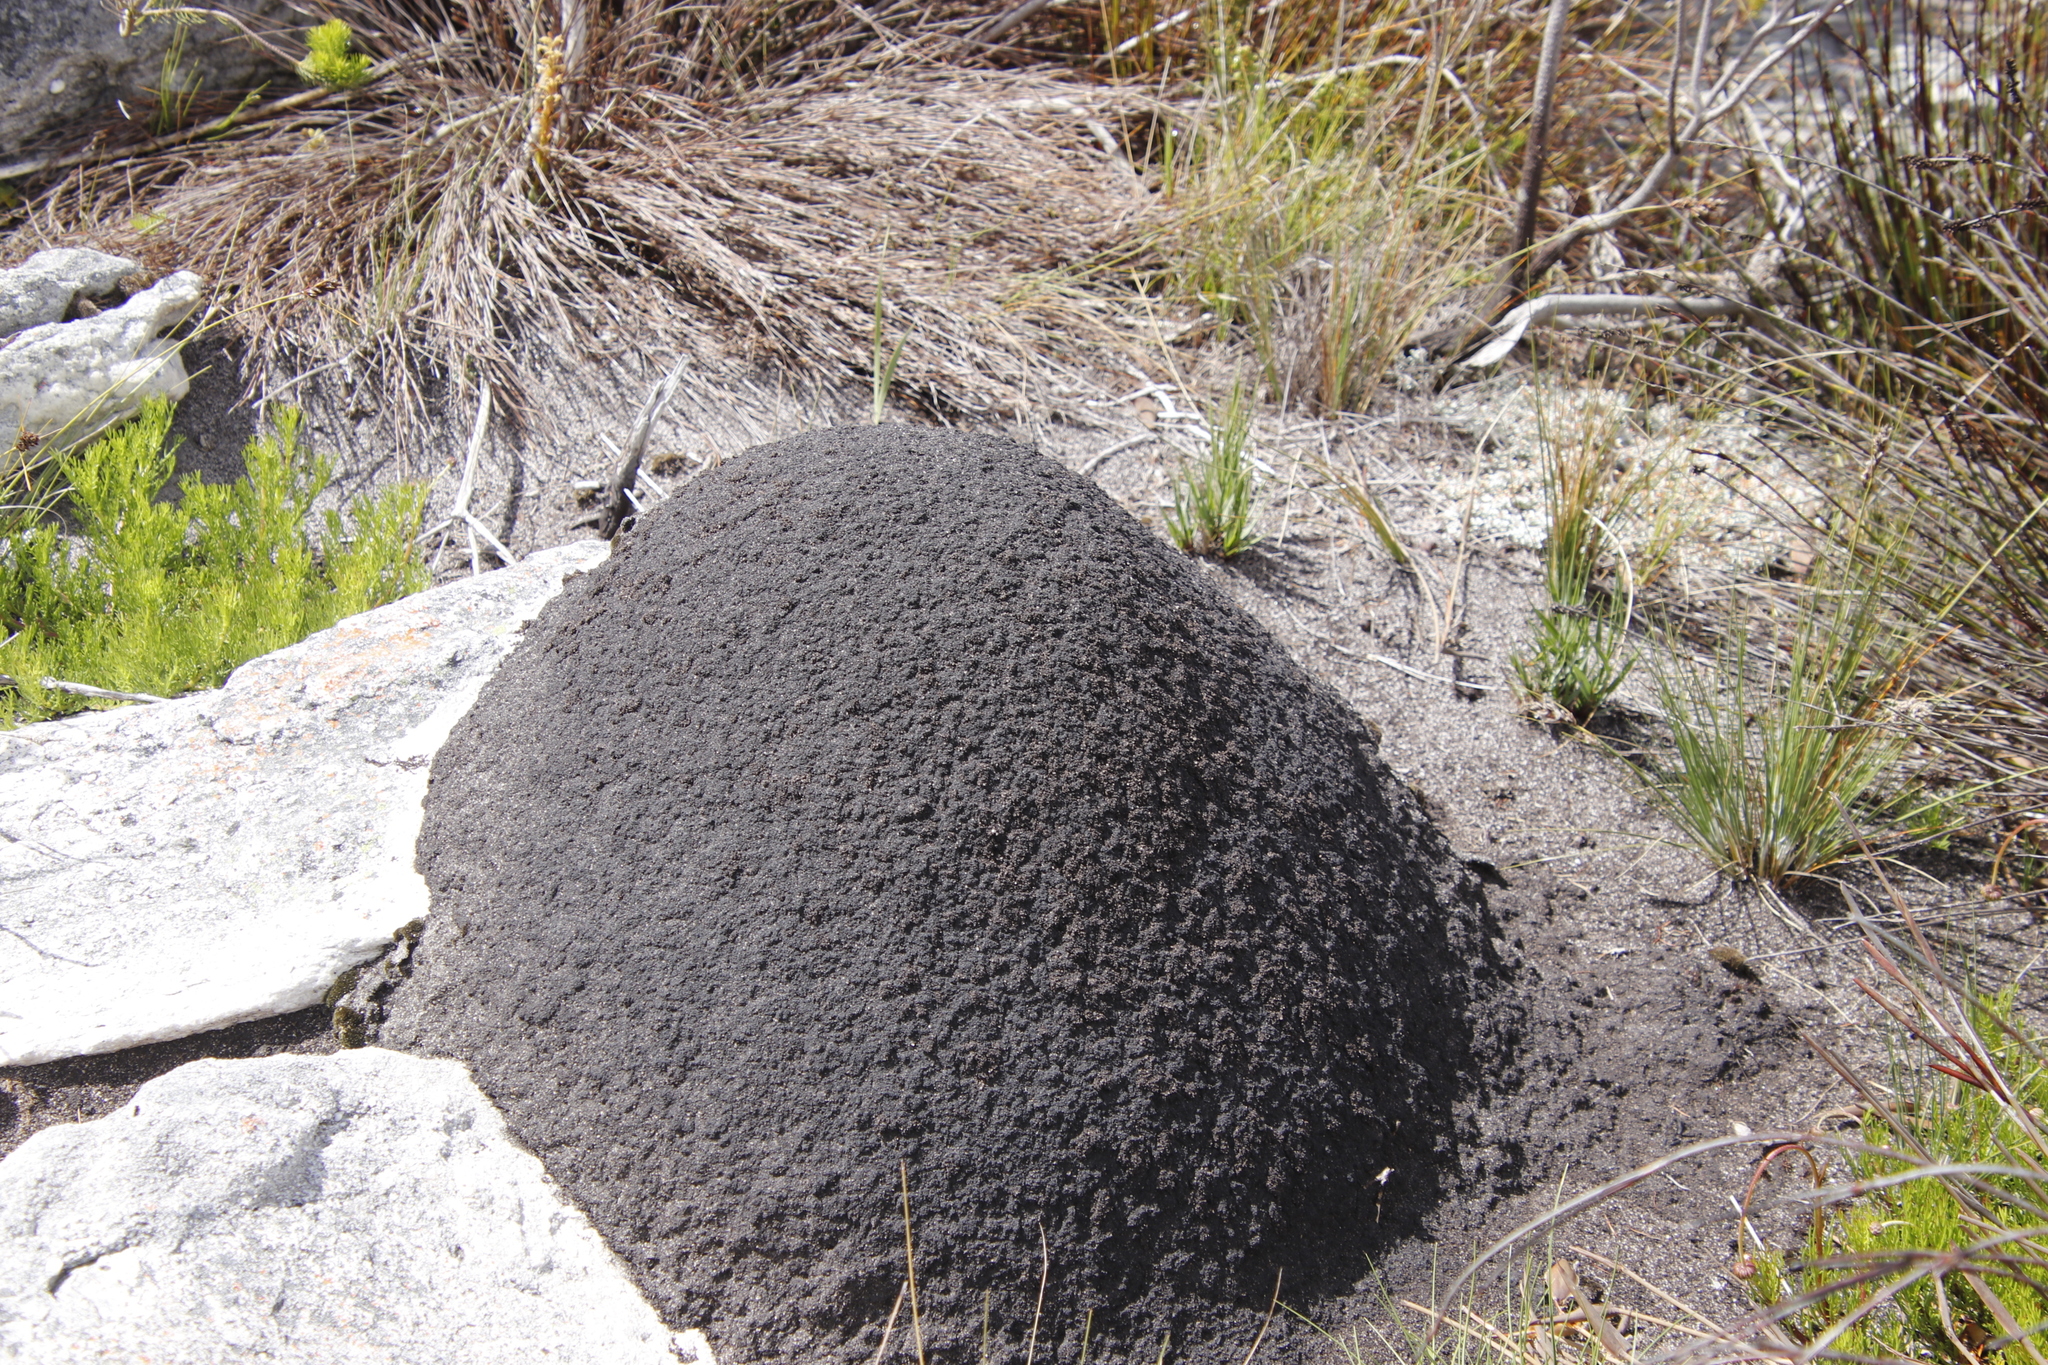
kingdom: Animalia
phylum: Arthropoda
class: Insecta
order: Blattodea
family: Termitidae
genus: Amitermes
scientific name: Amitermes hastatus
